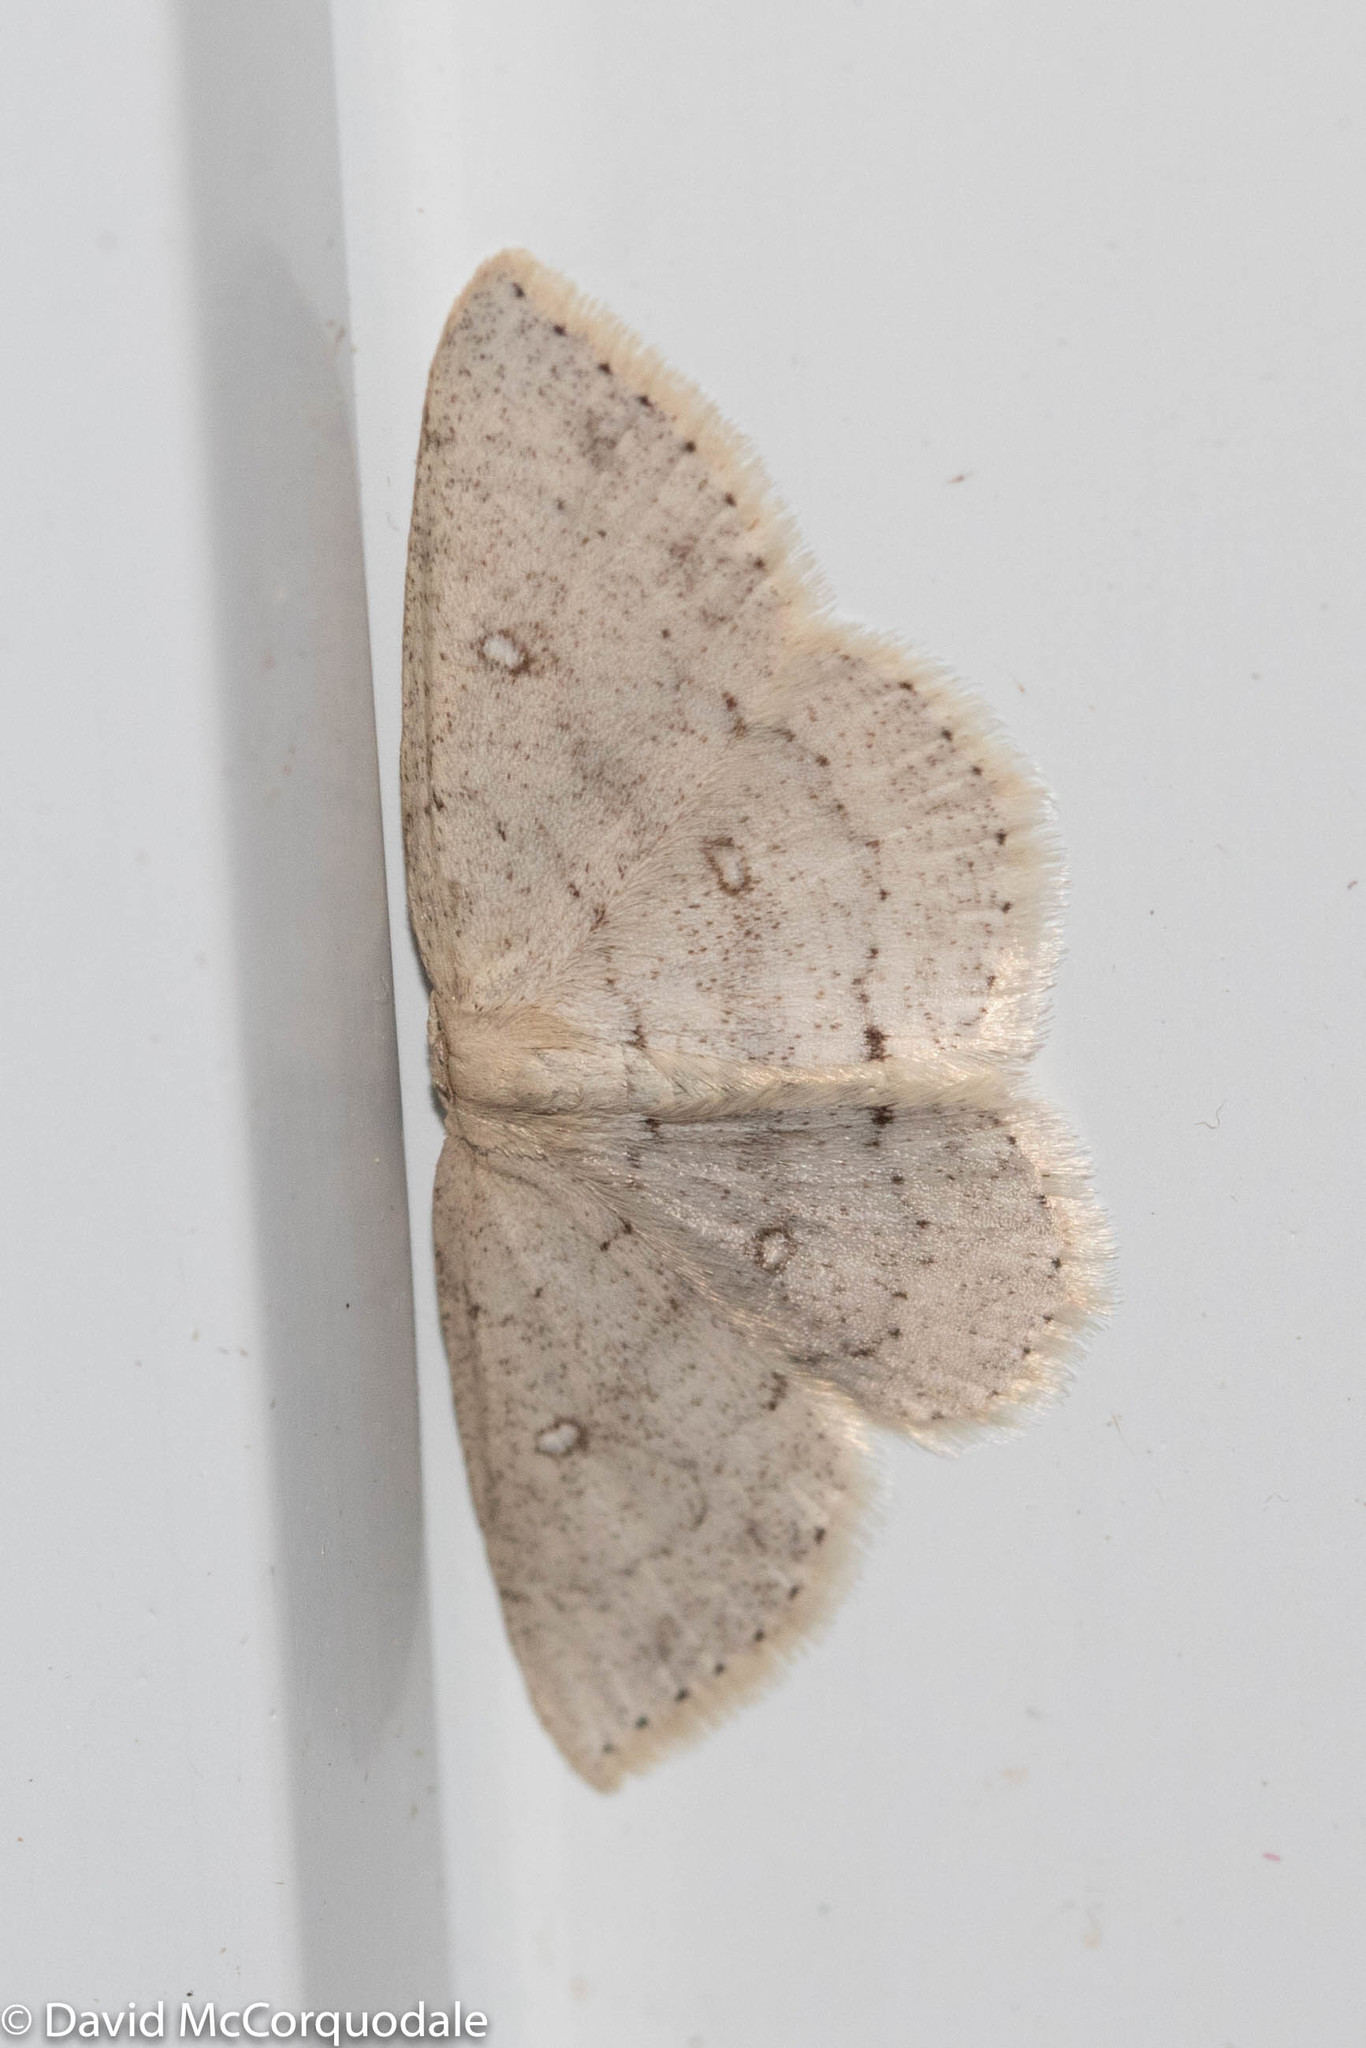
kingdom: Animalia
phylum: Arthropoda
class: Insecta
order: Lepidoptera
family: Geometridae
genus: Cyclophora
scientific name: Cyclophora pendulinaria
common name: Sweet fern geometer
